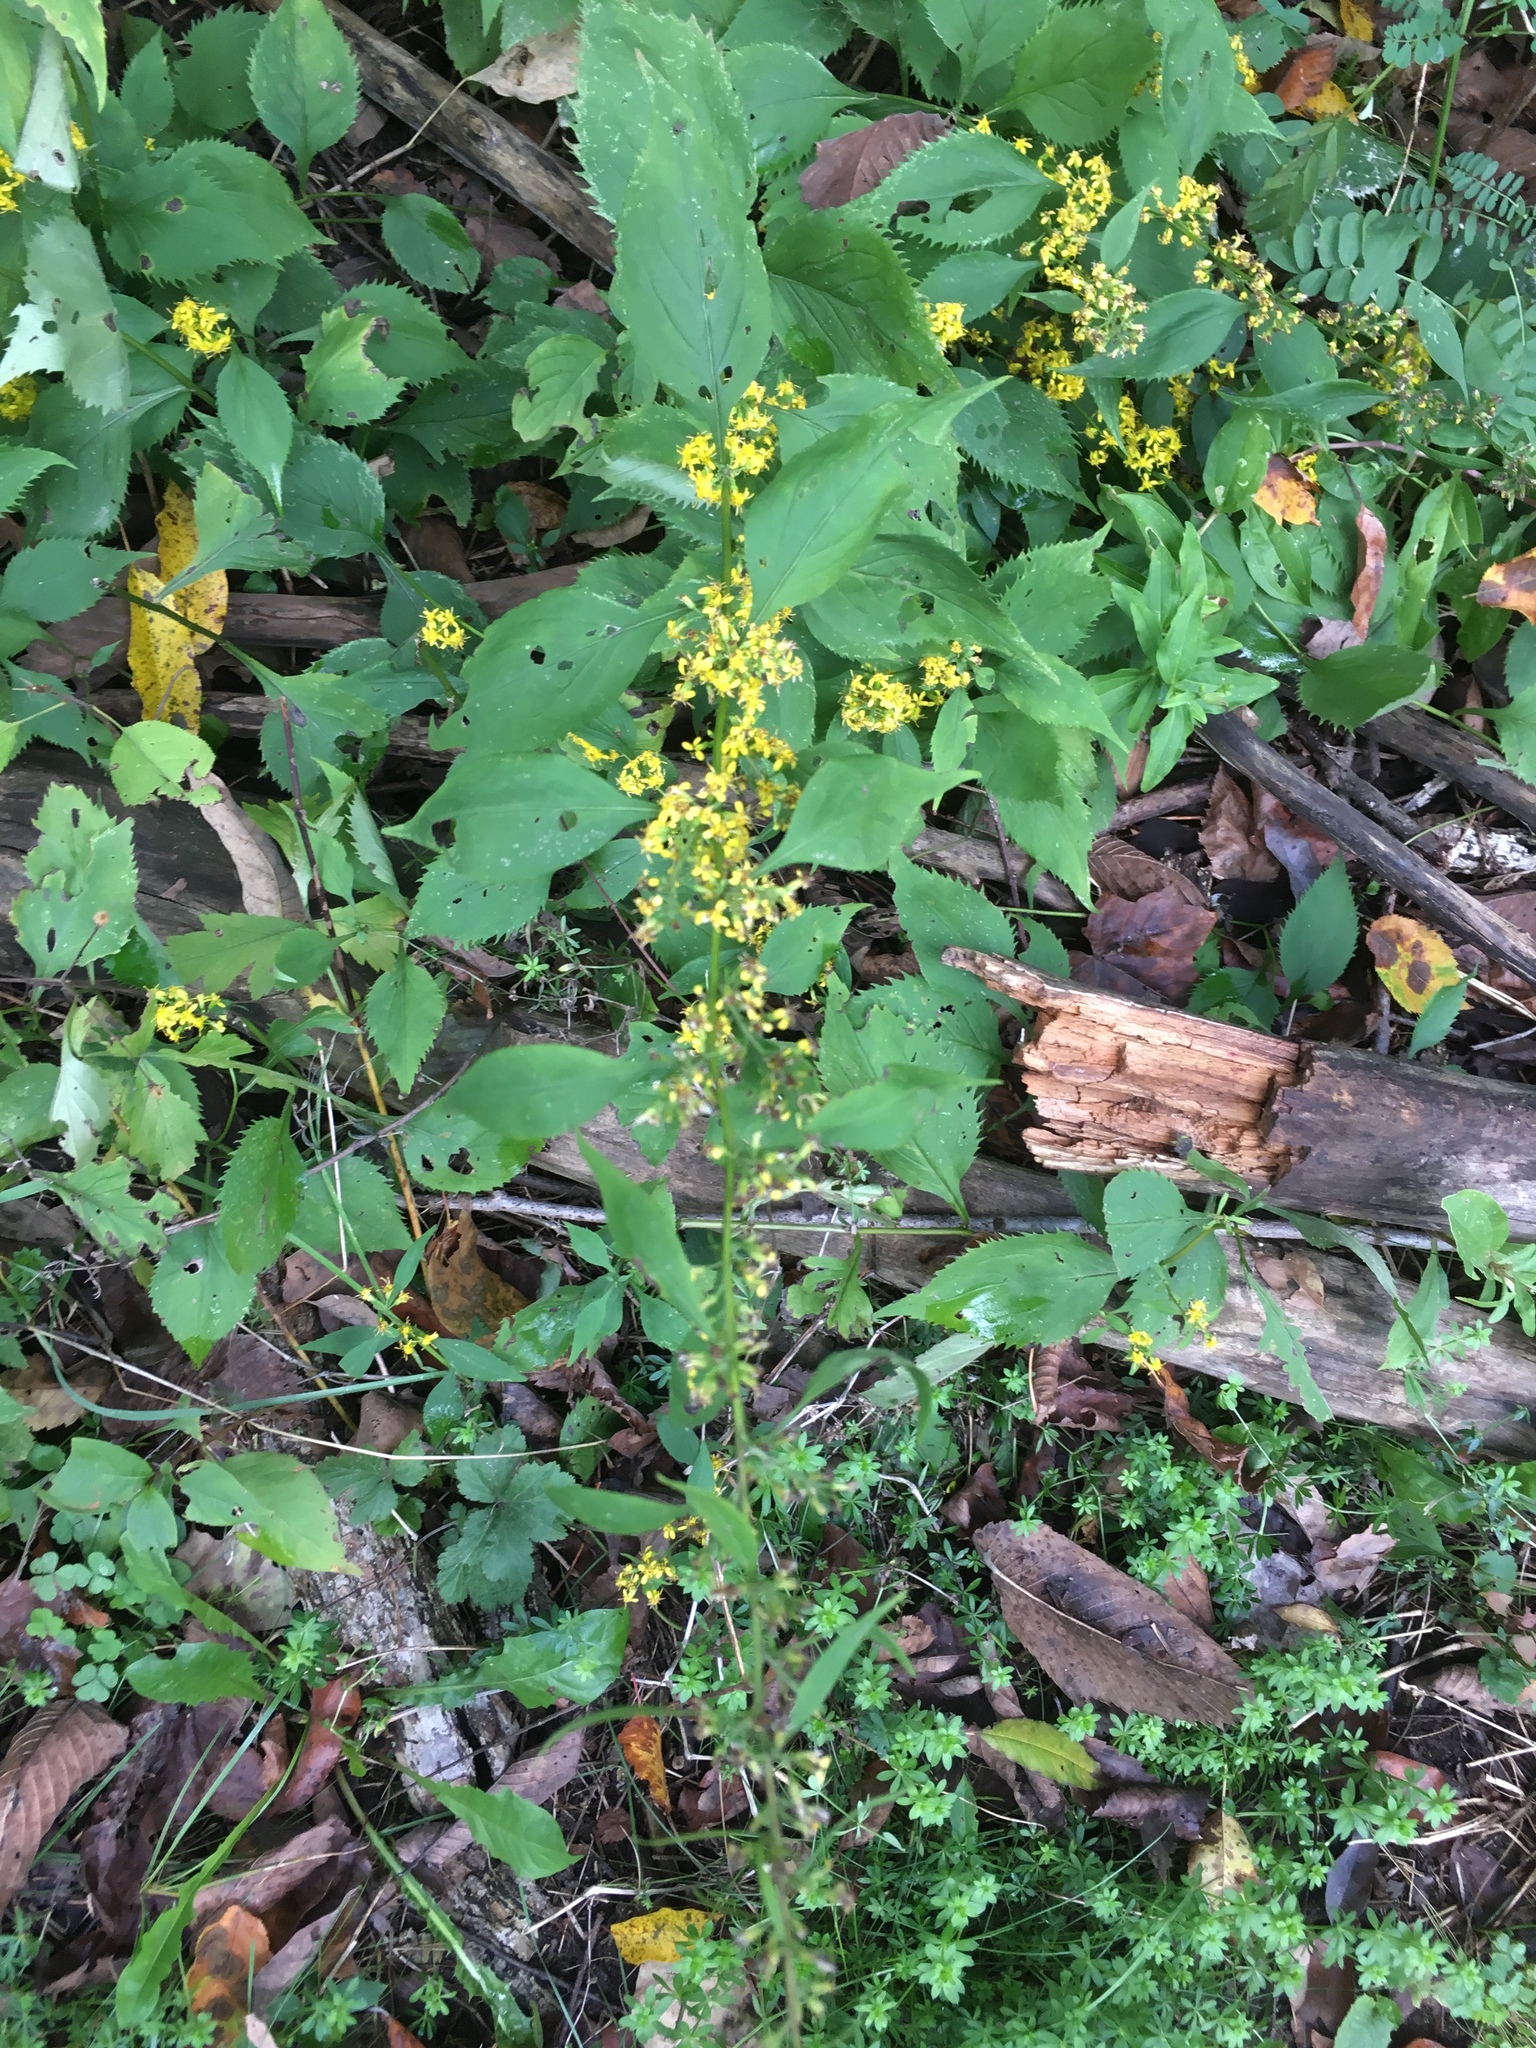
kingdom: Plantae
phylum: Tracheophyta
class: Magnoliopsida
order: Asterales
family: Asteraceae
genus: Solidago
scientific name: Solidago flexicaulis
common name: Zig-zag goldenrod
